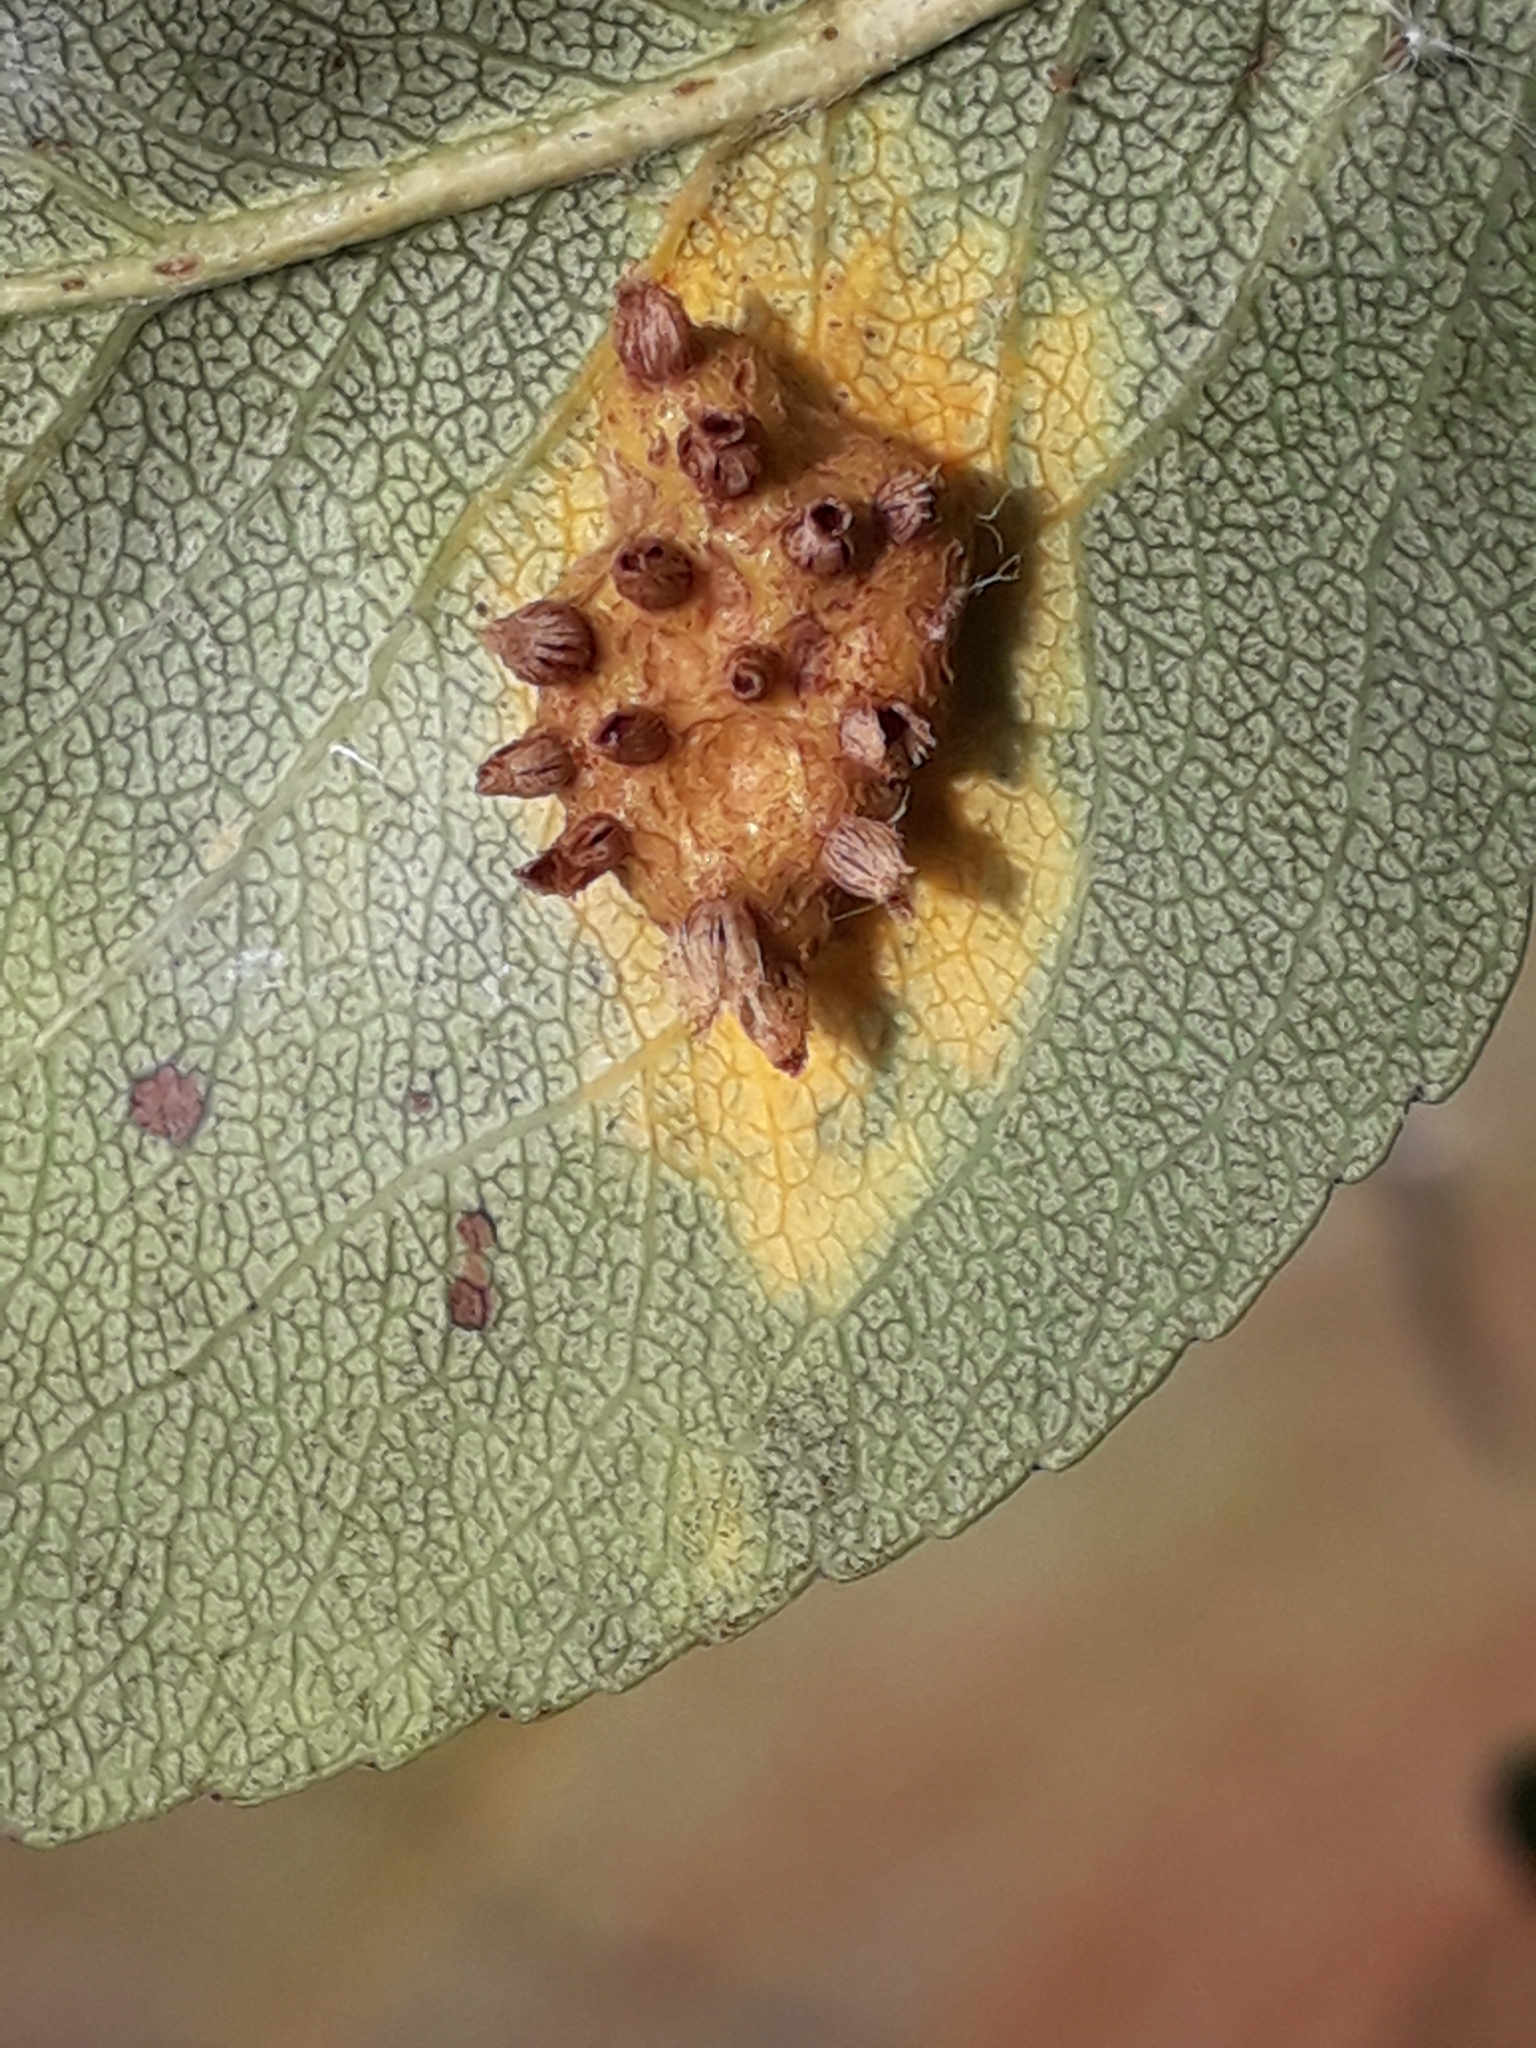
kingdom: Fungi
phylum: Basidiomycota
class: Pucciniomycetes
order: Pucciniales
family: Gymnosporangiaceae
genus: Gymnosporangium
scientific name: Gymnosporangium sabinae
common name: Pear trellis rust fungus
